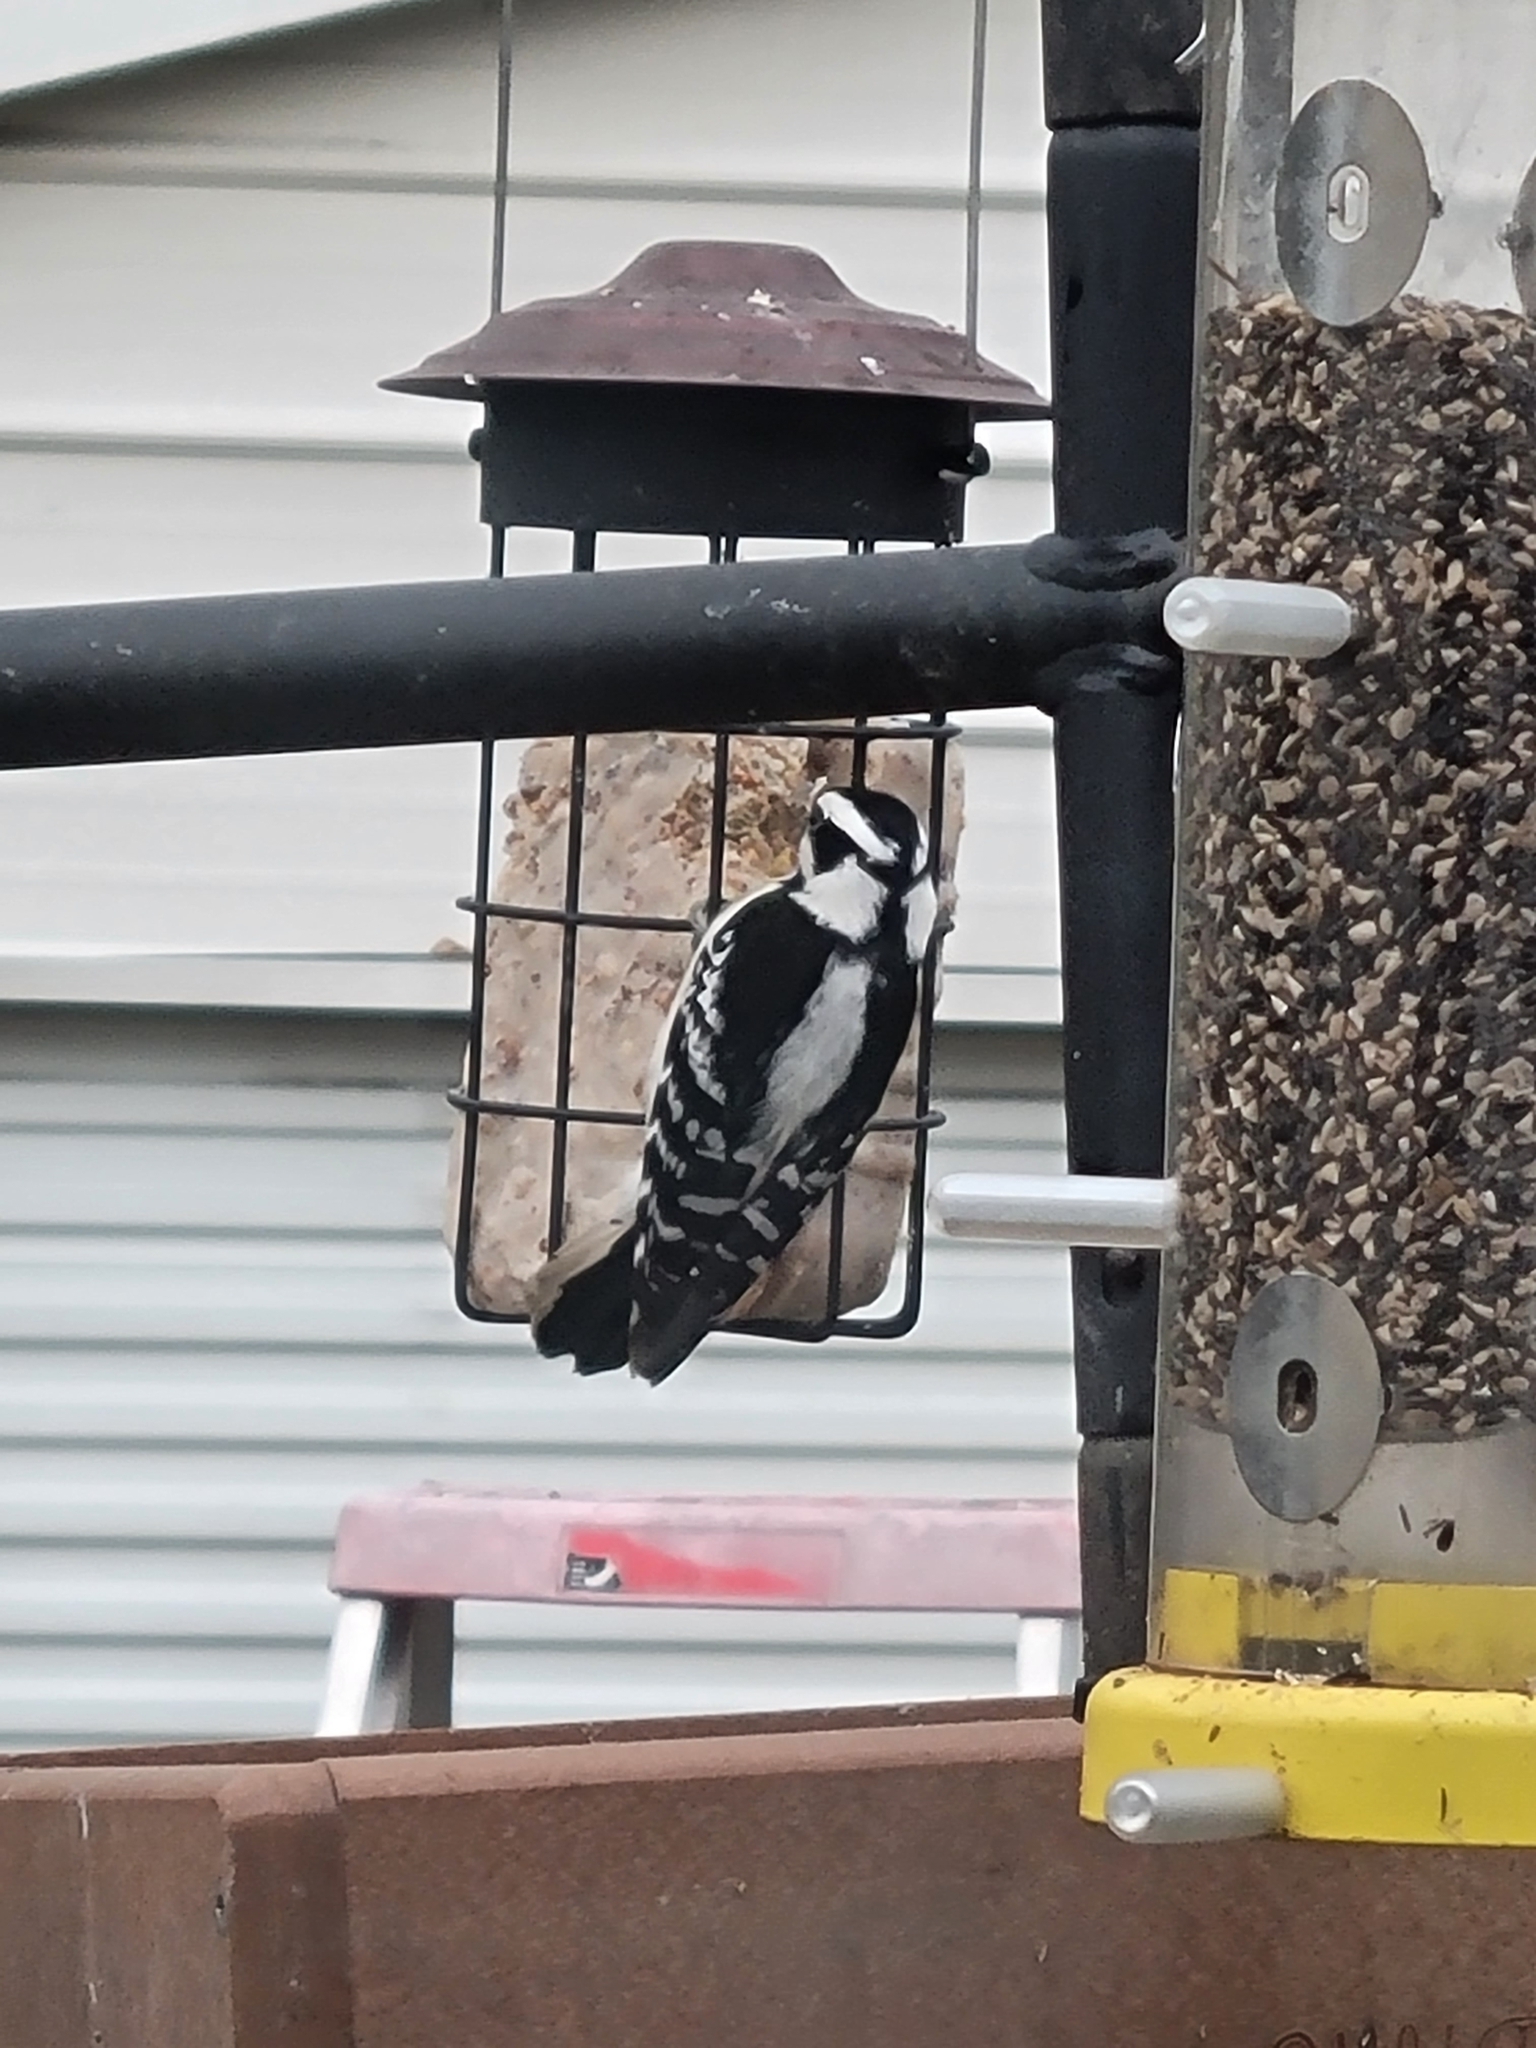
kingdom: Animalia
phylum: Chordata
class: Aves
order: Piciformes
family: Picidae
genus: Dryobates
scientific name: Dryobates pubescens
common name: Downy woodpecker
